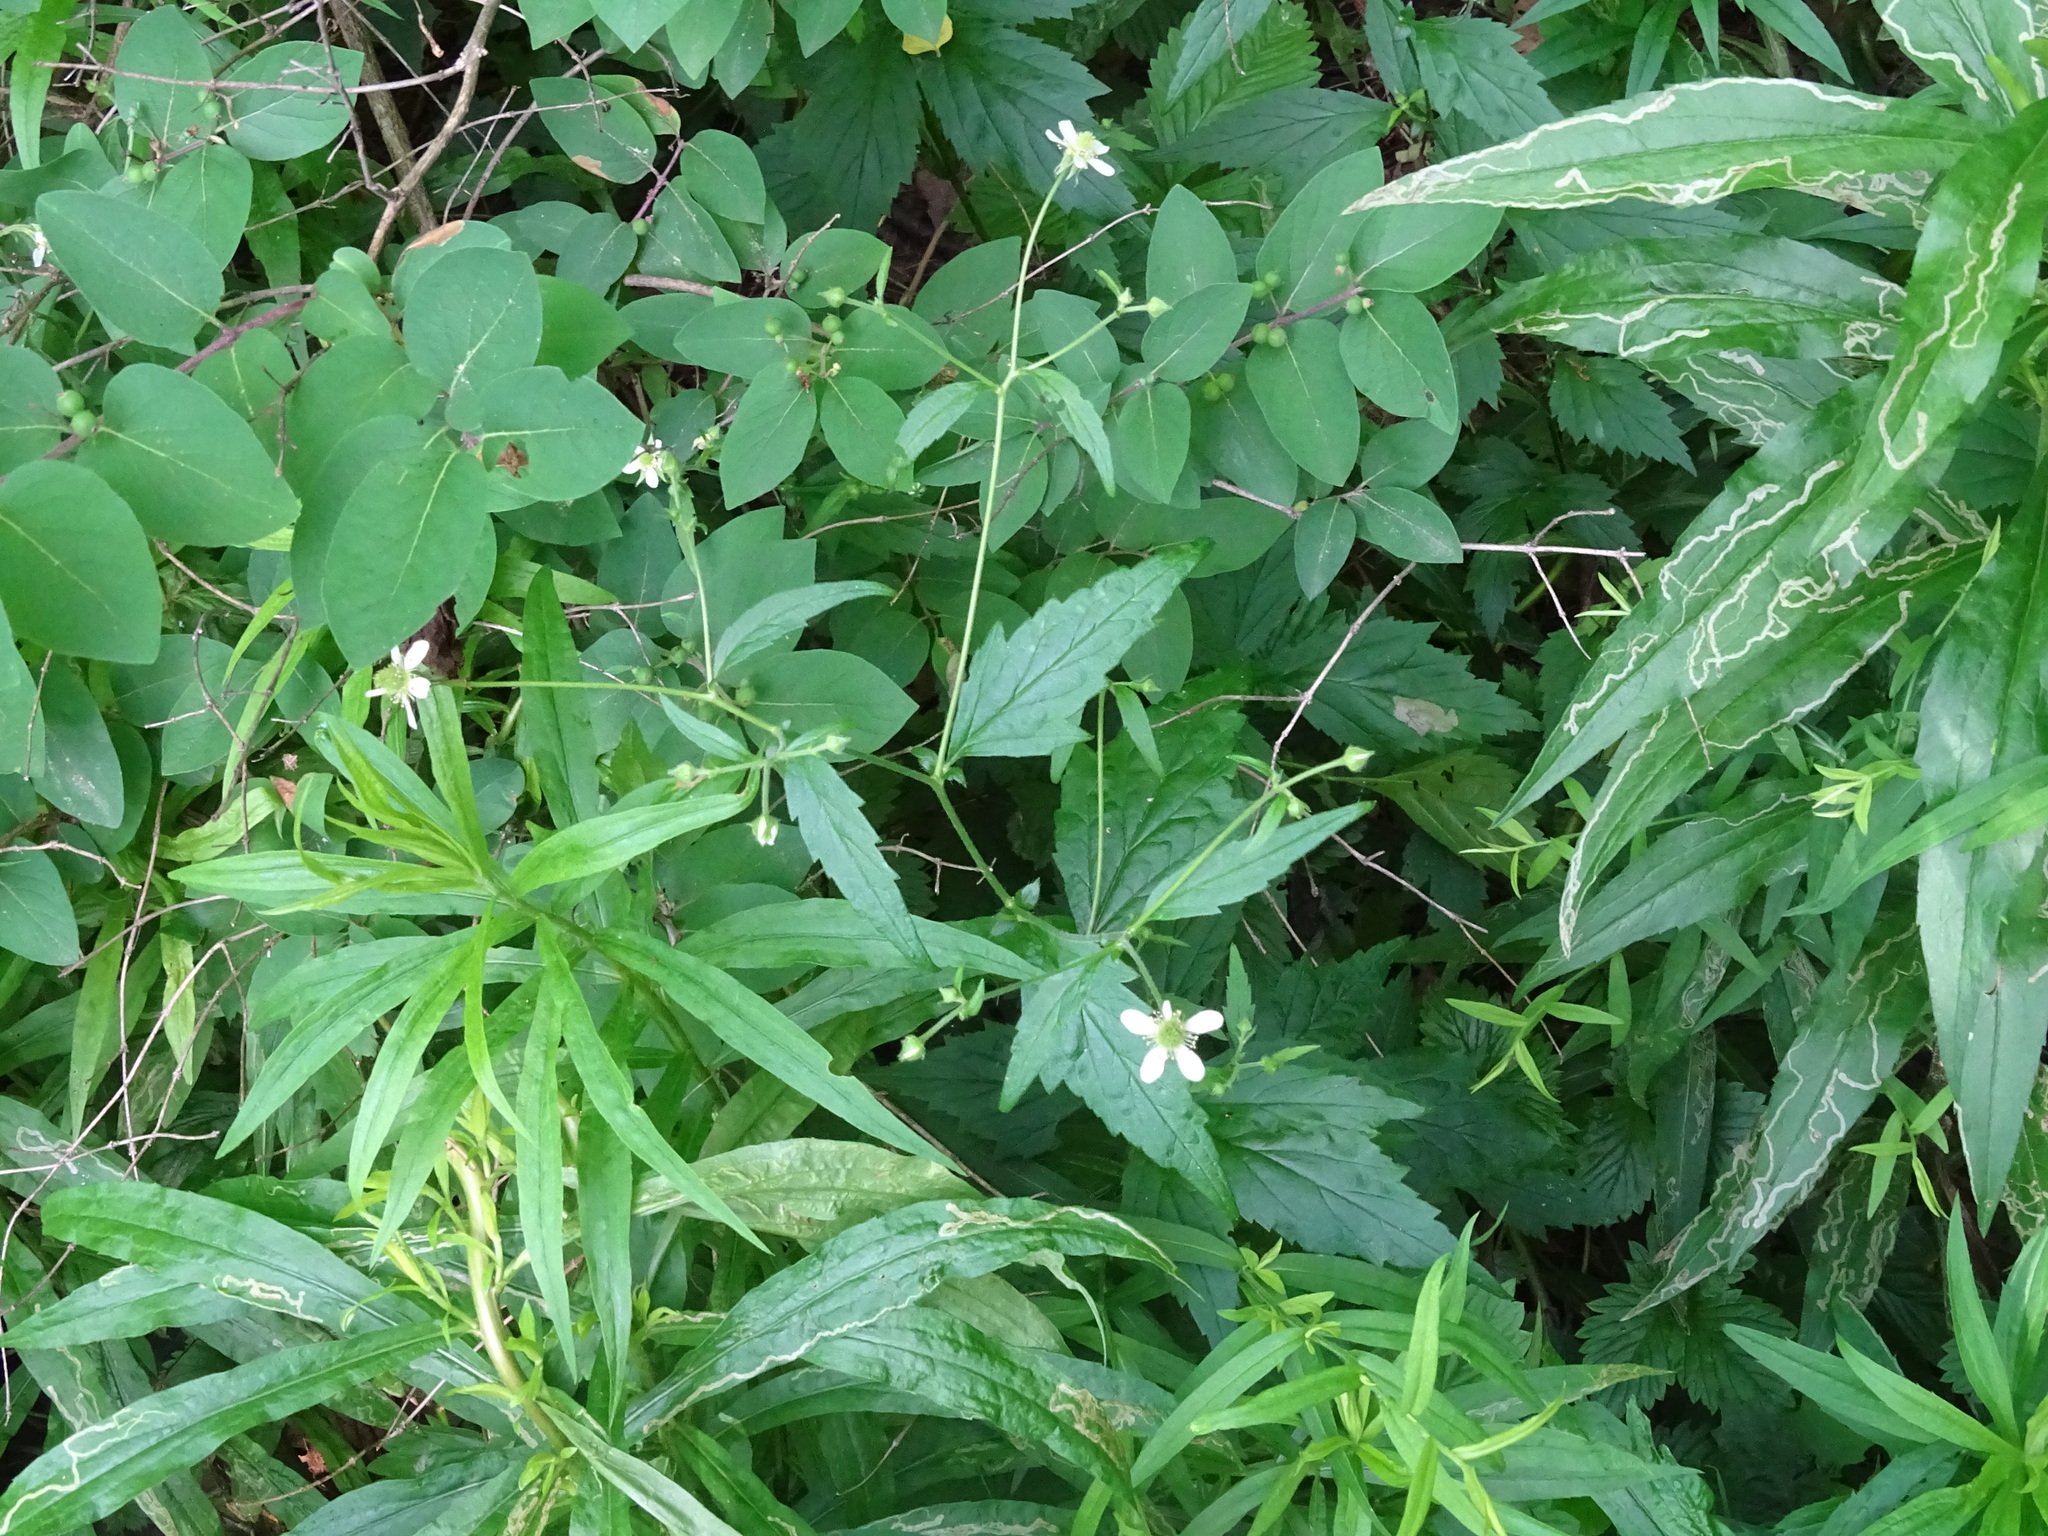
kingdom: Plantae
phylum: Tracheophyta
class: Magnoliopsida
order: Rosales
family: Rosaceae
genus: Geum
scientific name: Geum canadense
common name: White avens
